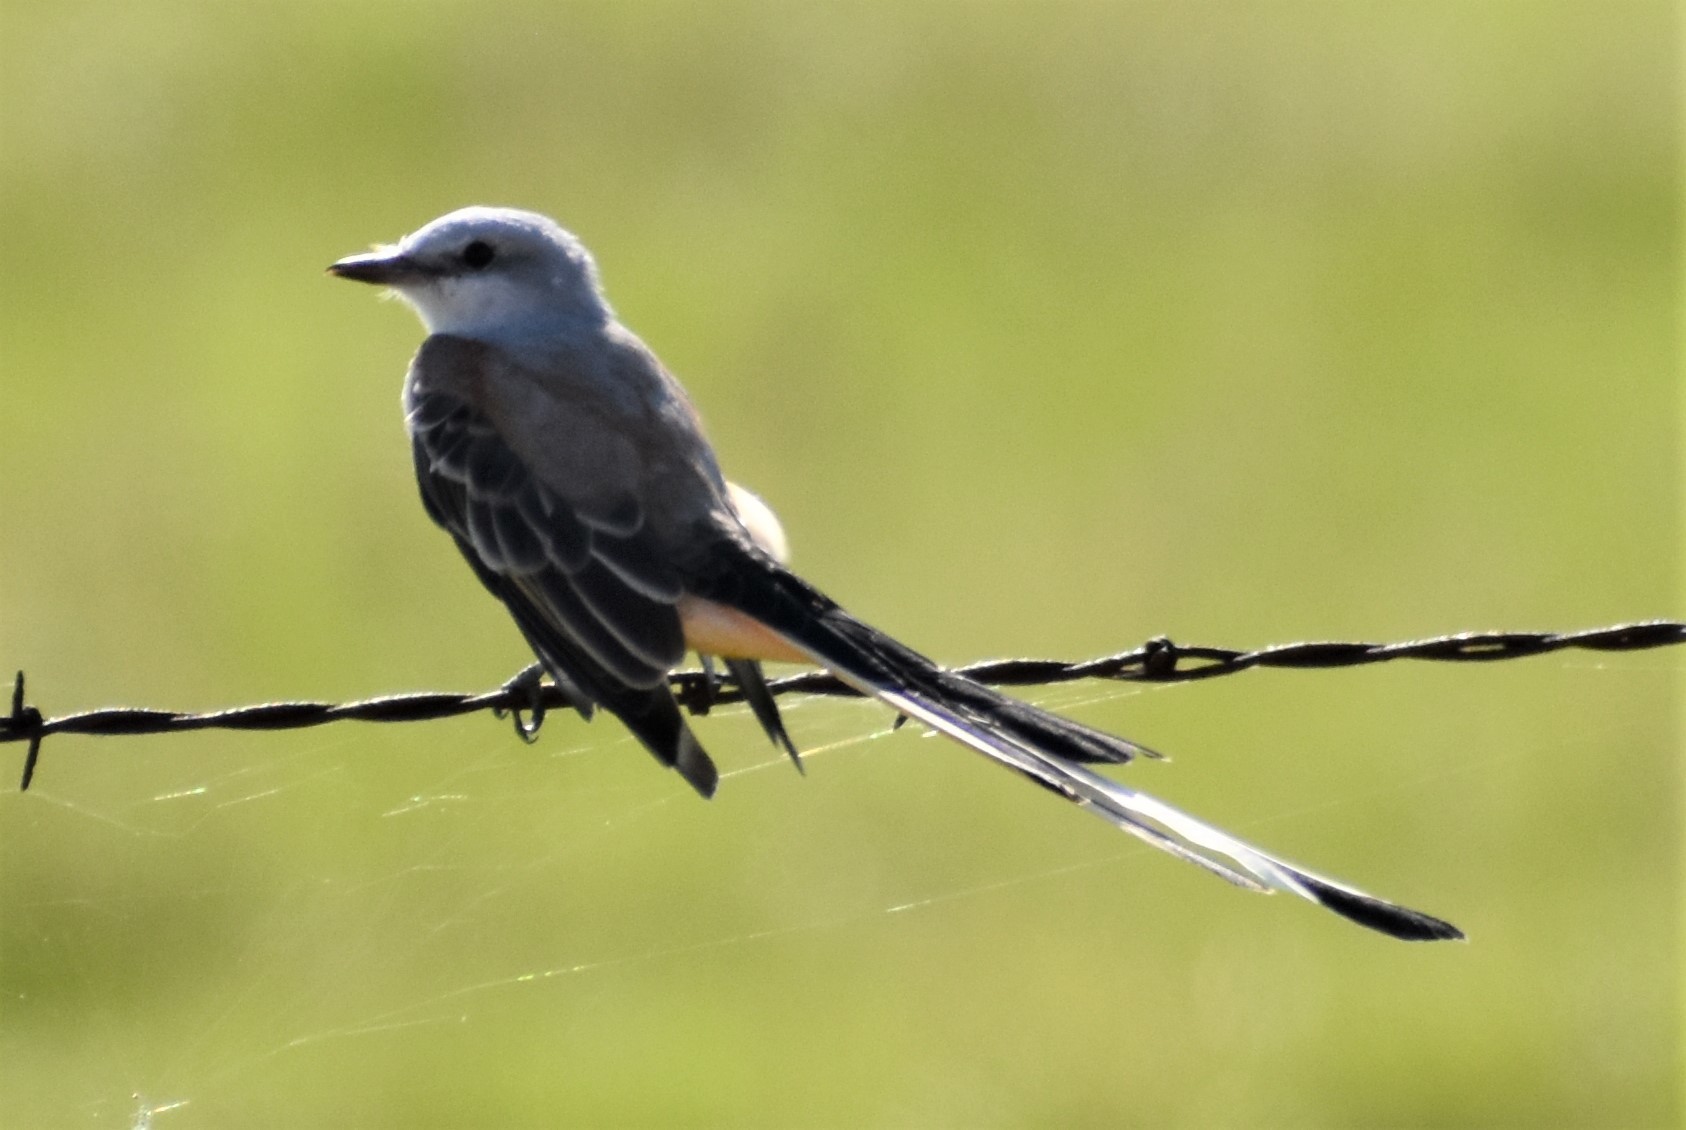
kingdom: Animalia
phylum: Chordata
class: Aves
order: Passeriformes
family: Tyrannidae
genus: Tyrannus
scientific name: Tyrannus forficatus
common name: Scissor-tailed flycatcher
